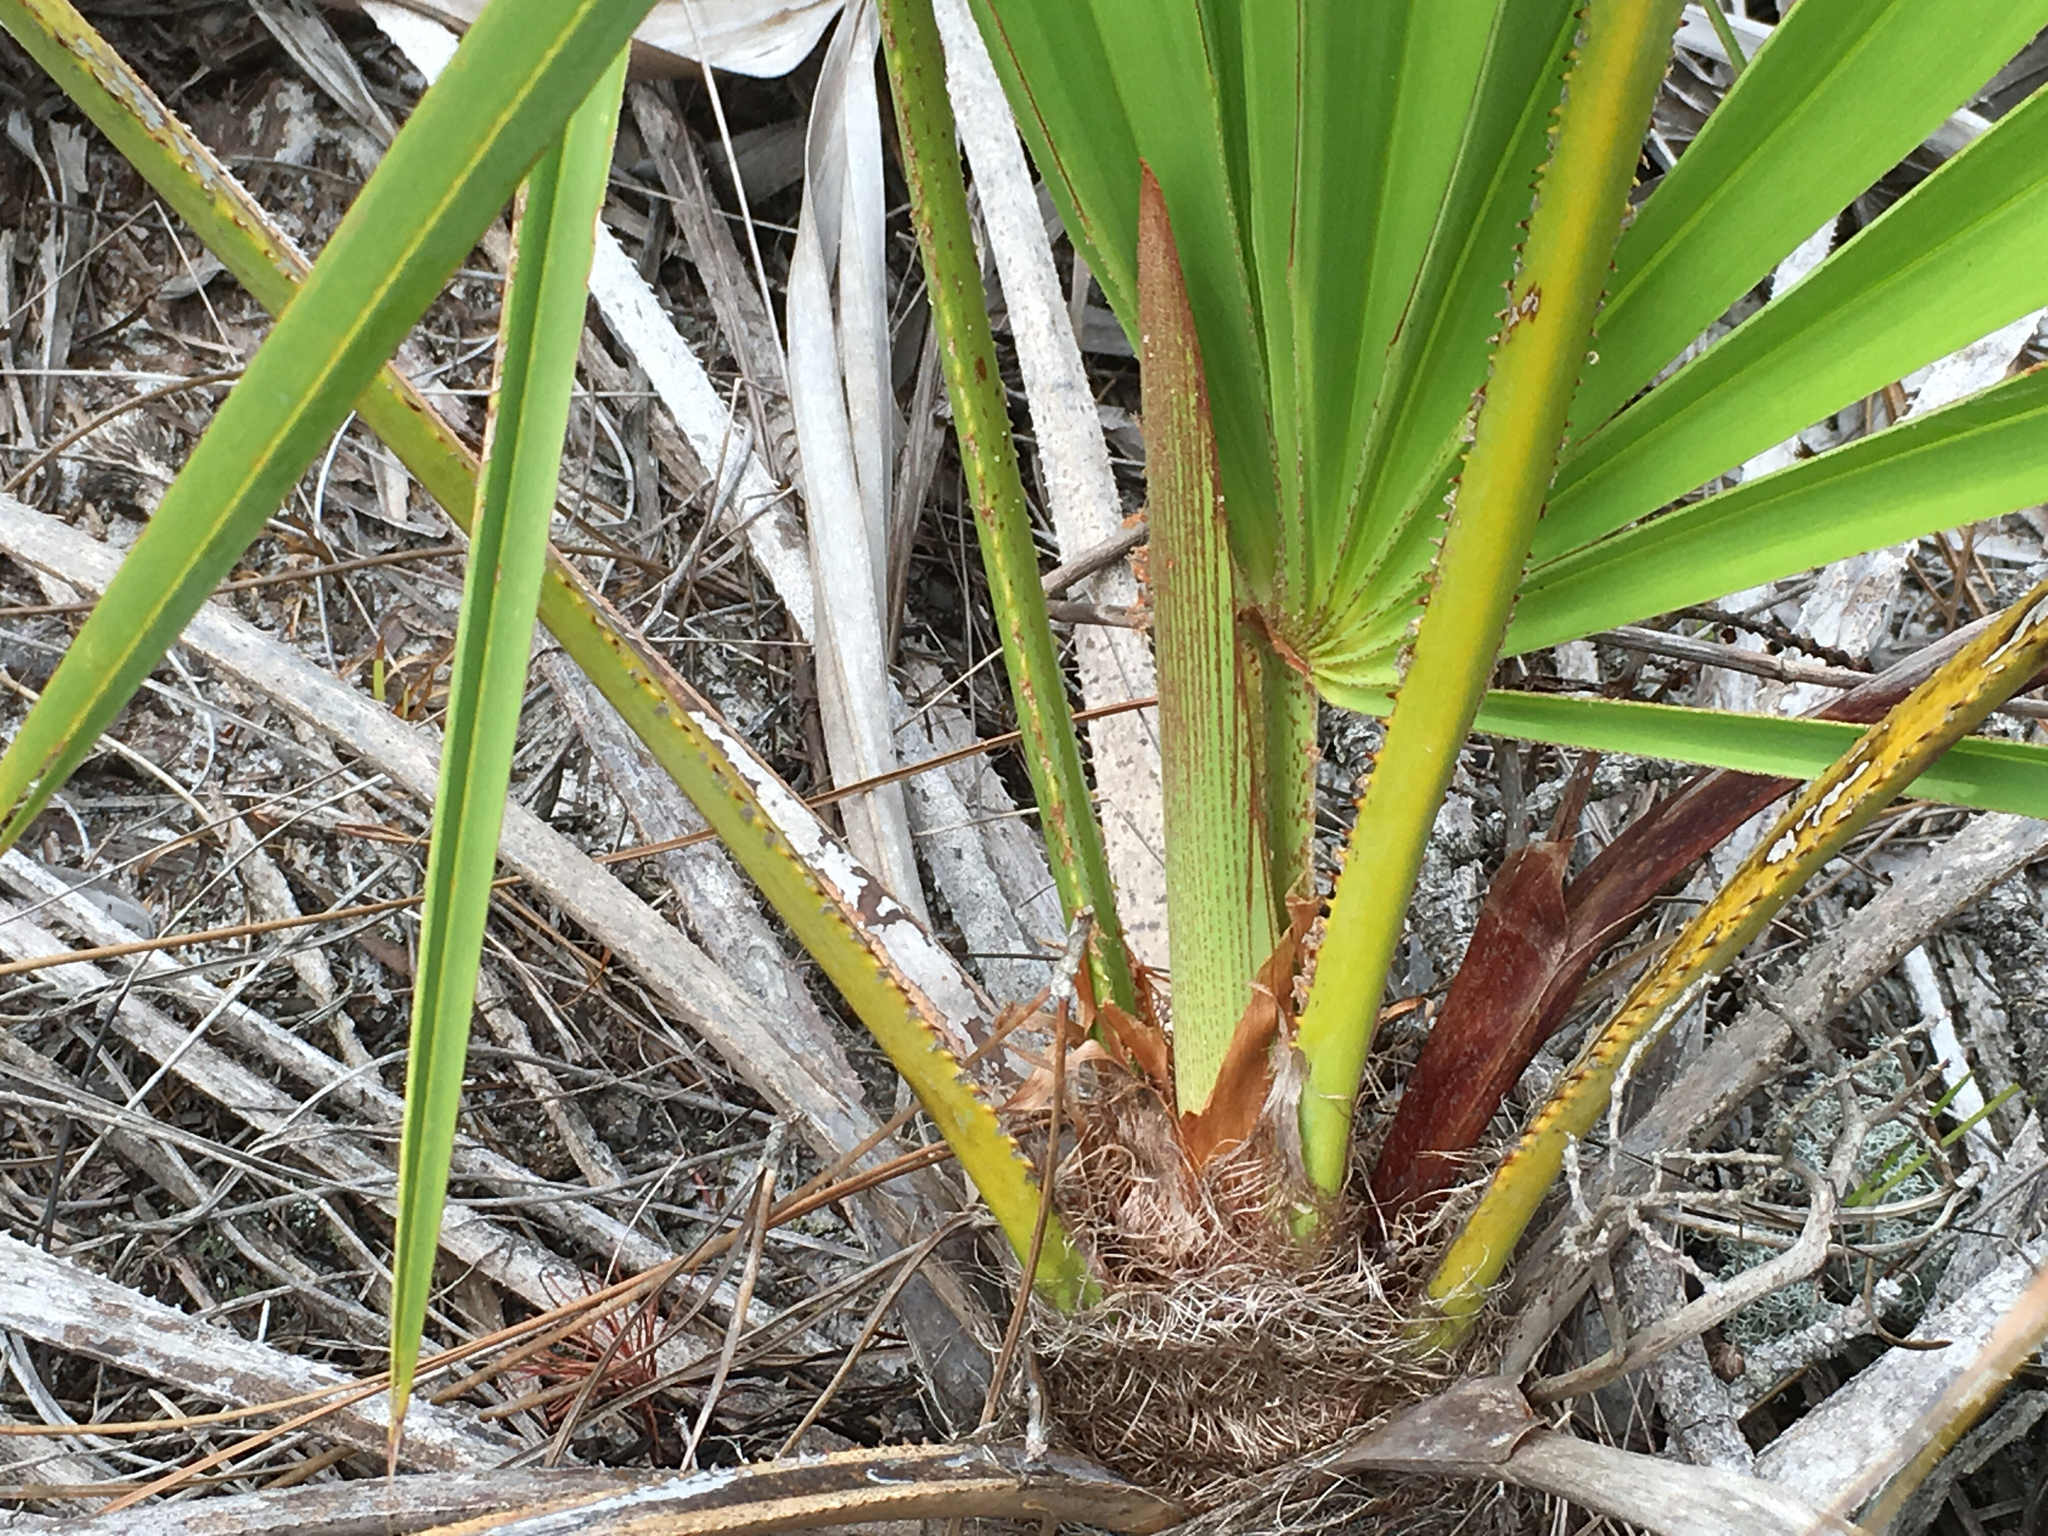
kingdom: Plantae
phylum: Tracheophyta
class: Liliopsida
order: Arecales
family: Arecaceae
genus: Serenoa
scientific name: Serenoa repens
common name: Saw-palmetto
